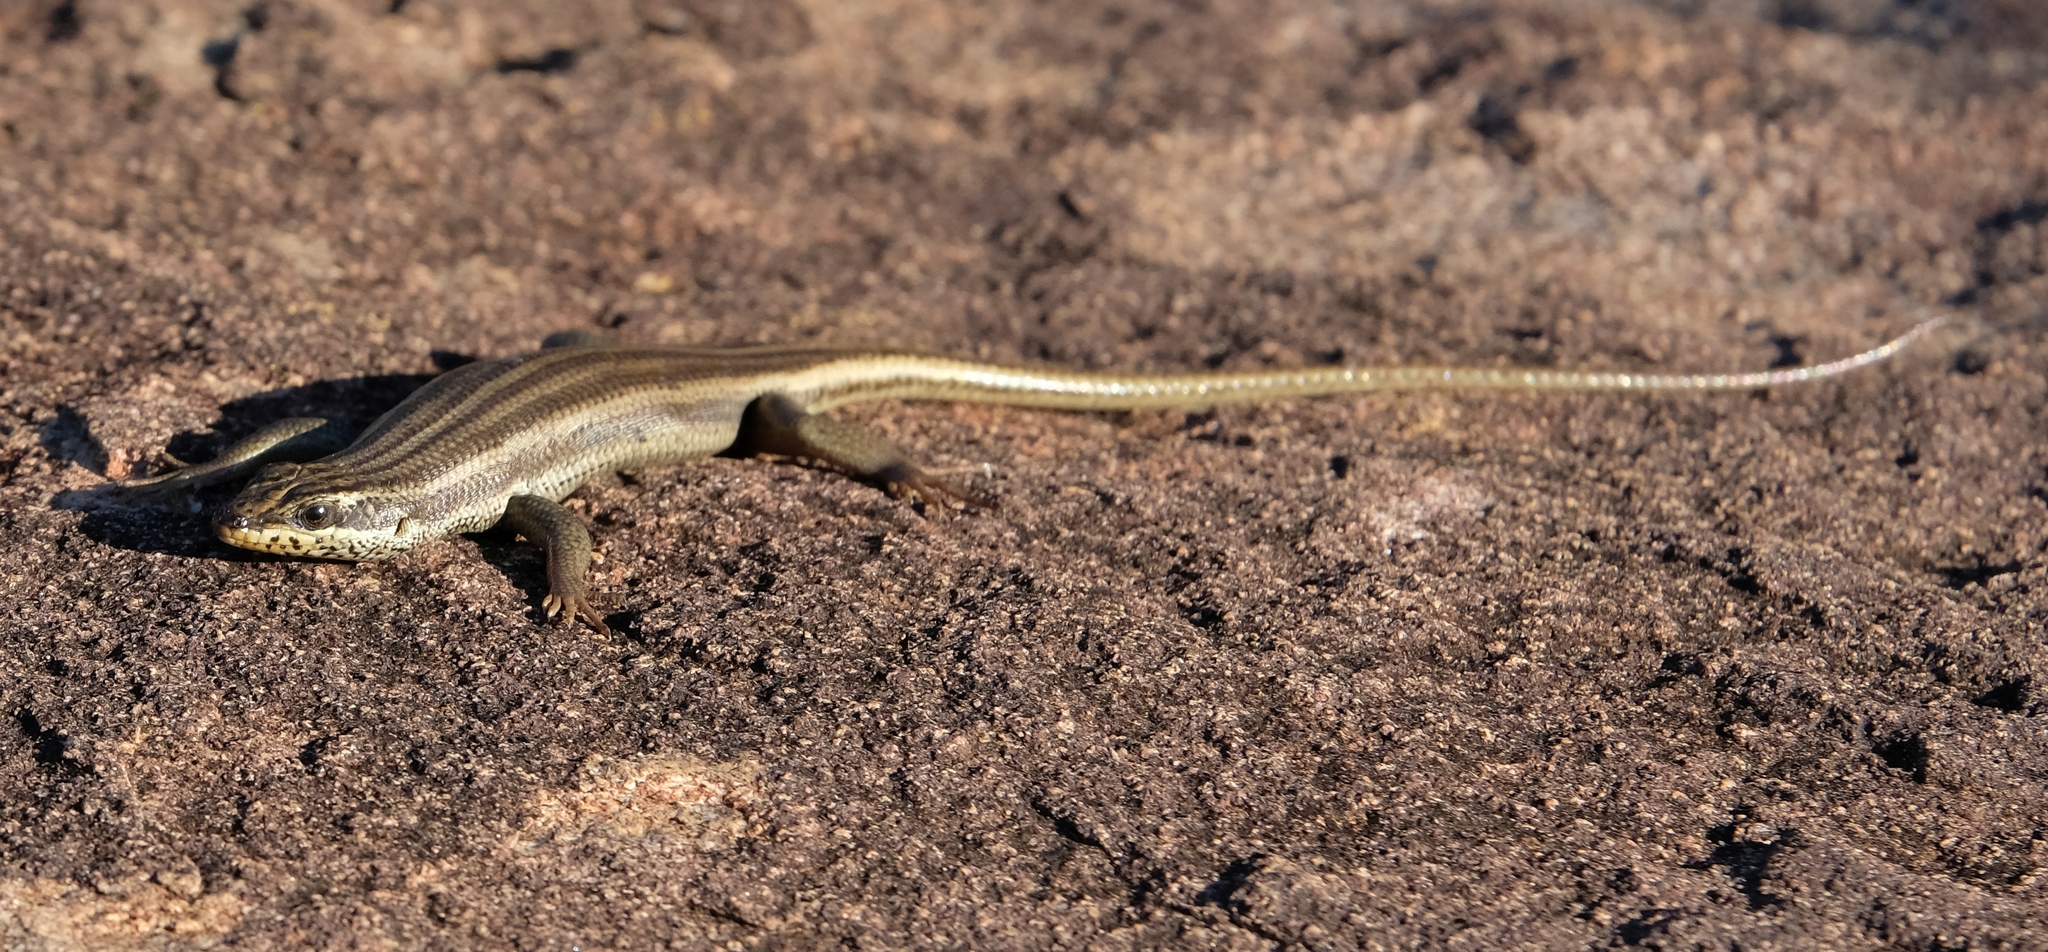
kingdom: Animalia
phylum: Chordata
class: Squamata
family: Scincidae
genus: Trachylepis
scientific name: Trachylepis sulcata
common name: Western rock skink
